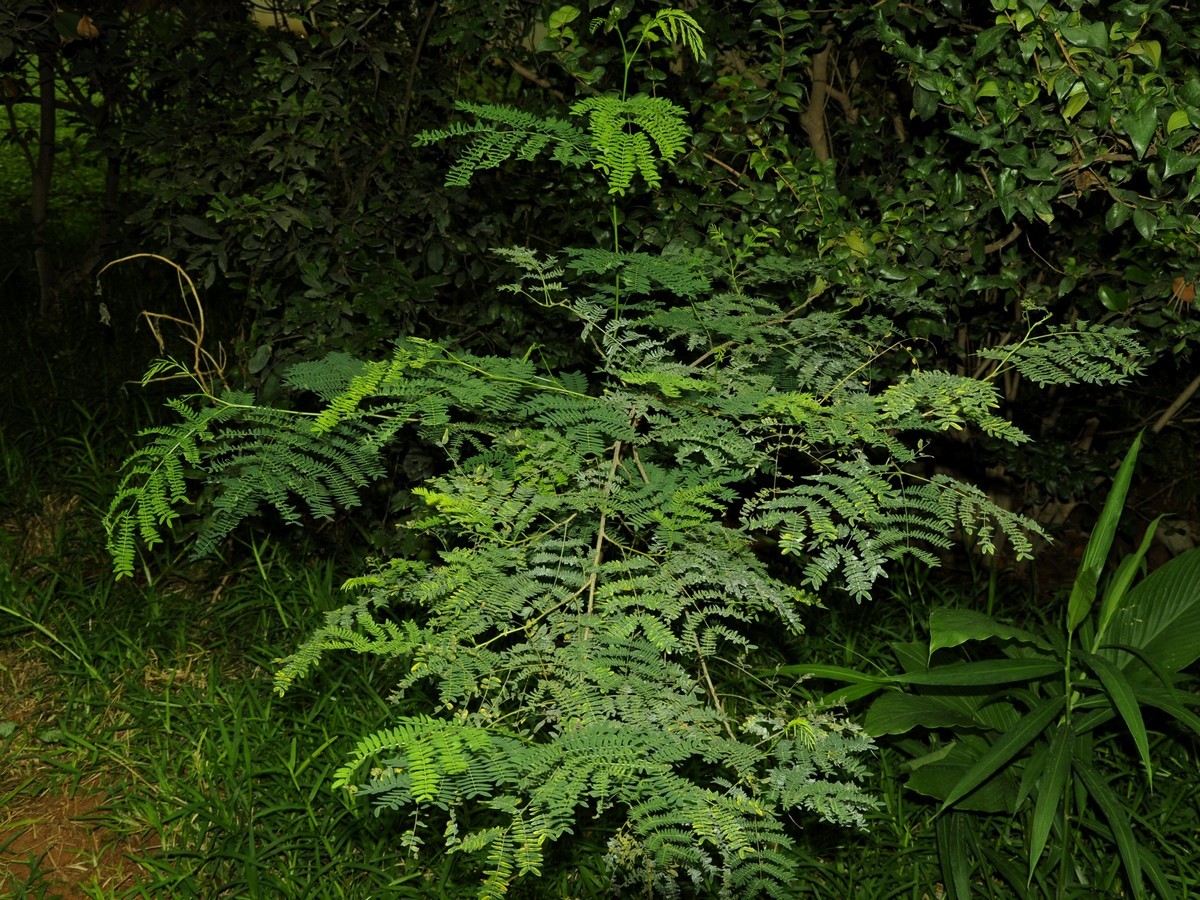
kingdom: Plantae
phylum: Tracheophyta
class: Magnoliopsida
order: Fabales
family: Fabaceae
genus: Leucaena
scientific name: Leucaena leucocephala
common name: White leadtree
